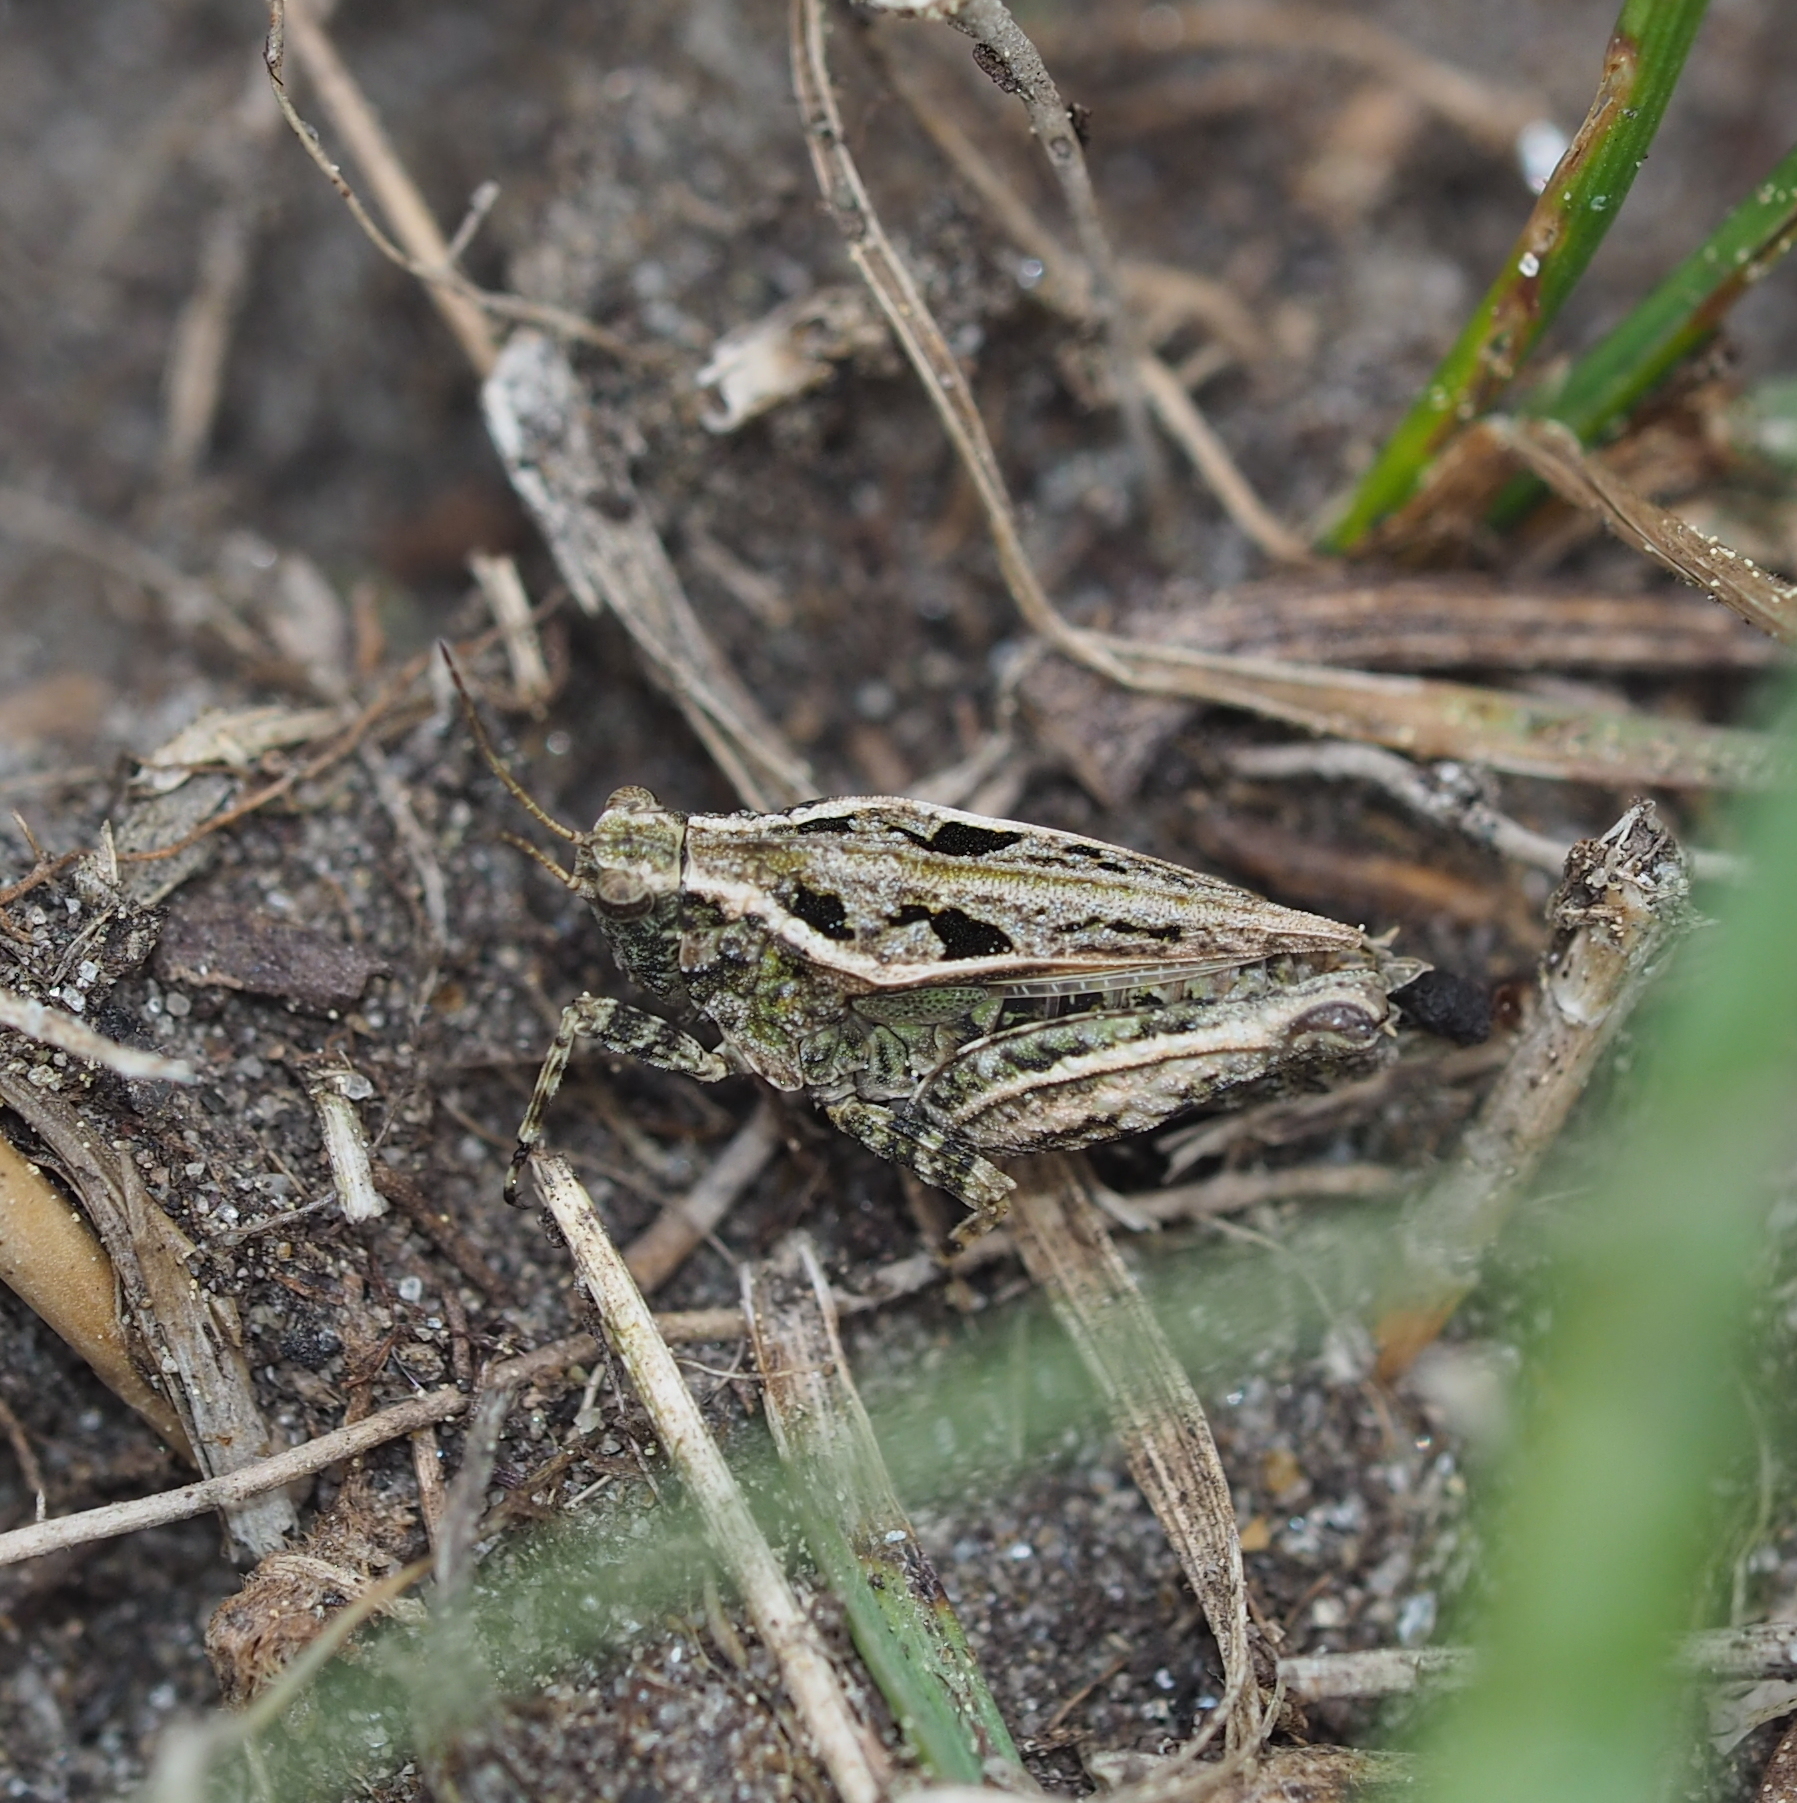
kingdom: Animalia
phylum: Arthropoda
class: Insecta
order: Orthoptera
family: Tetrigidae
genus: Tetrix
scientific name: Tetrix tenuicornis
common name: Long-horned groundhopper
